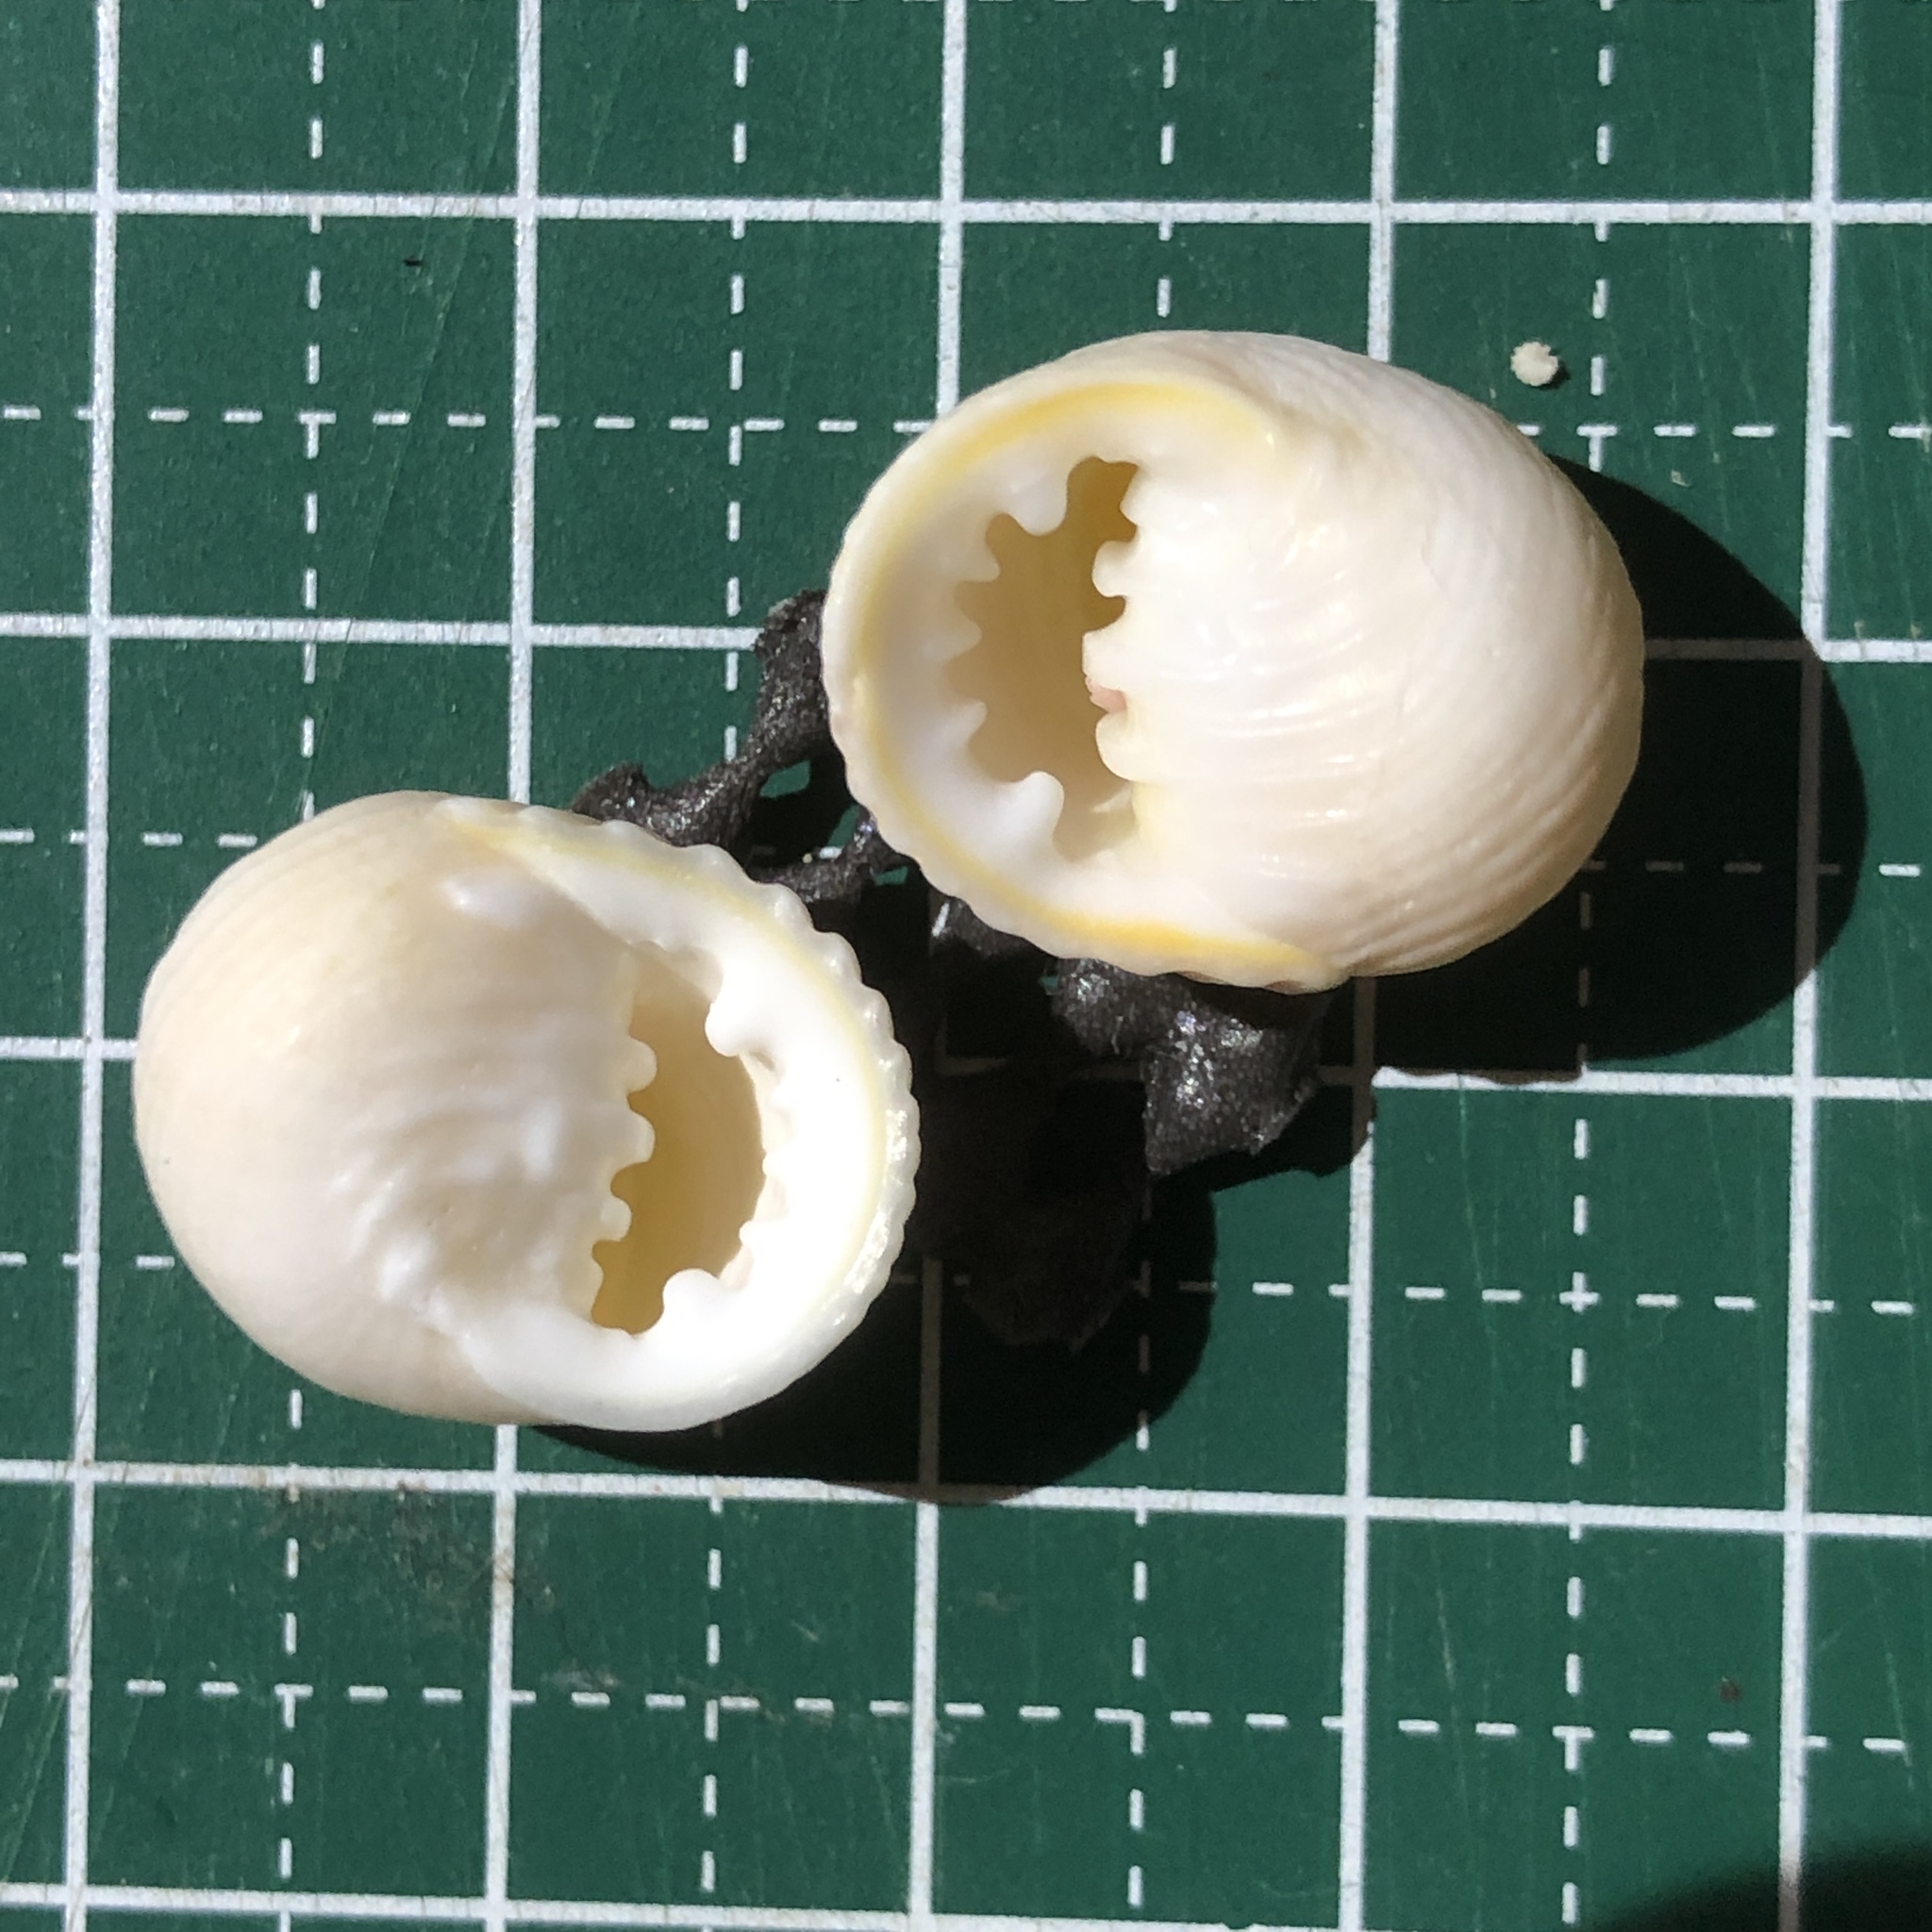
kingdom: Animalia
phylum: Mollusca
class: Gastropoda
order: Cycloneritida
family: Neritidae
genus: Nerita
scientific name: Nerita plicata
